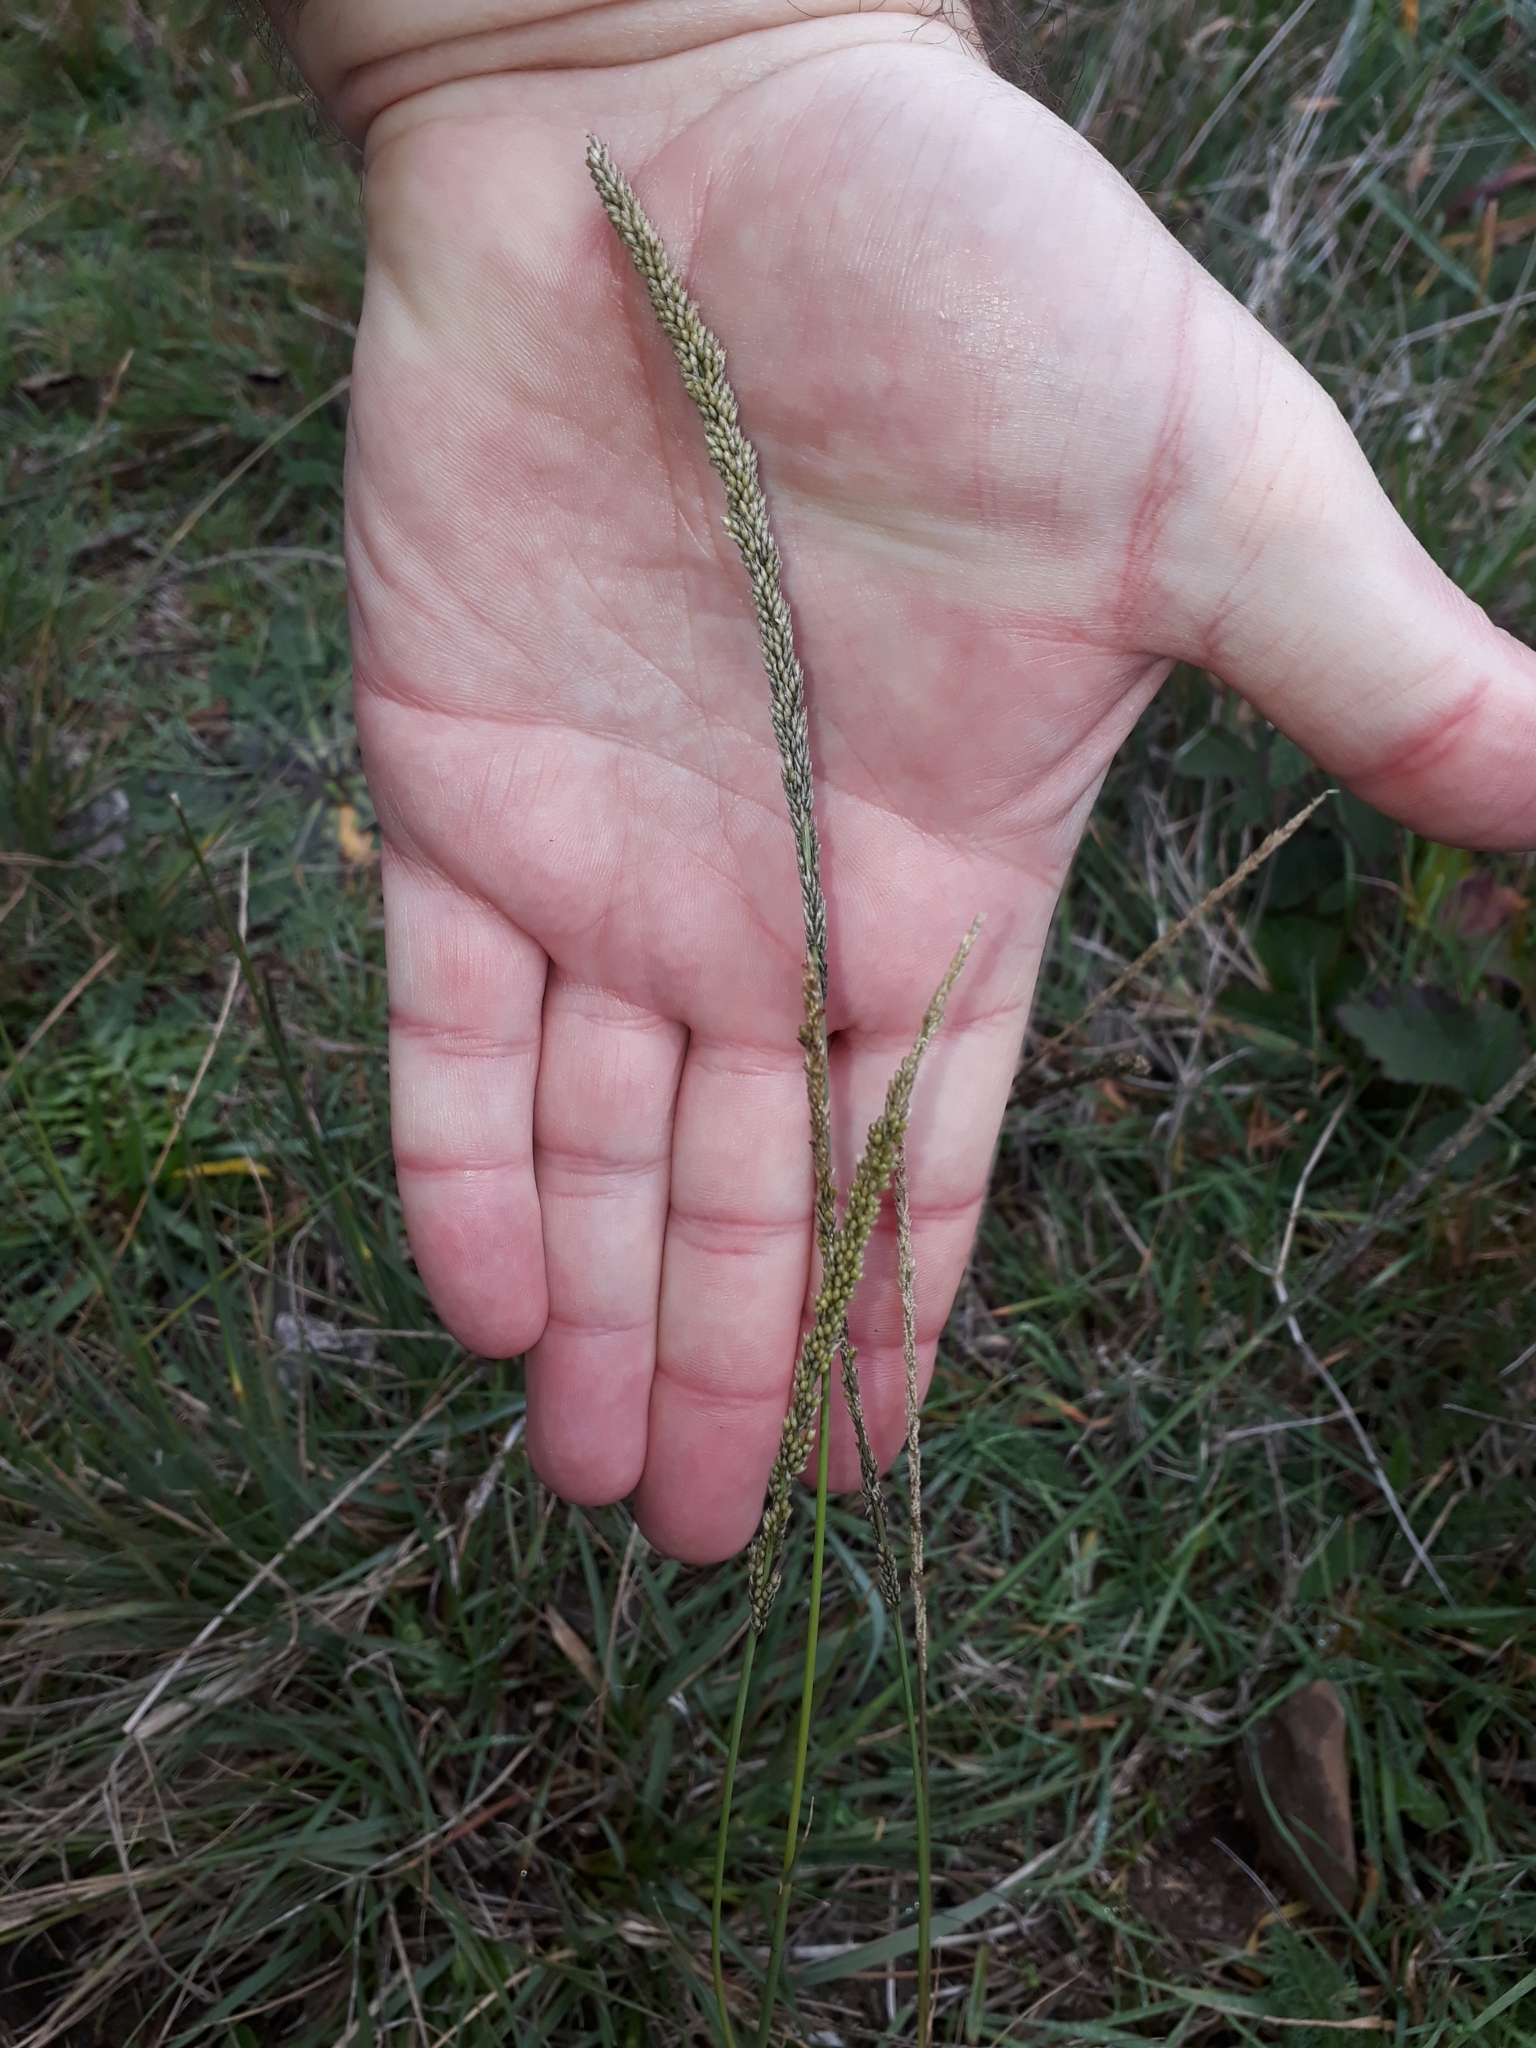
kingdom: Plantae
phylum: Tracheophyta
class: Liliopsida
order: Poales
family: Poaceae
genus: Sporobolus
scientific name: Sporobolus africanus
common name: African dropseed
